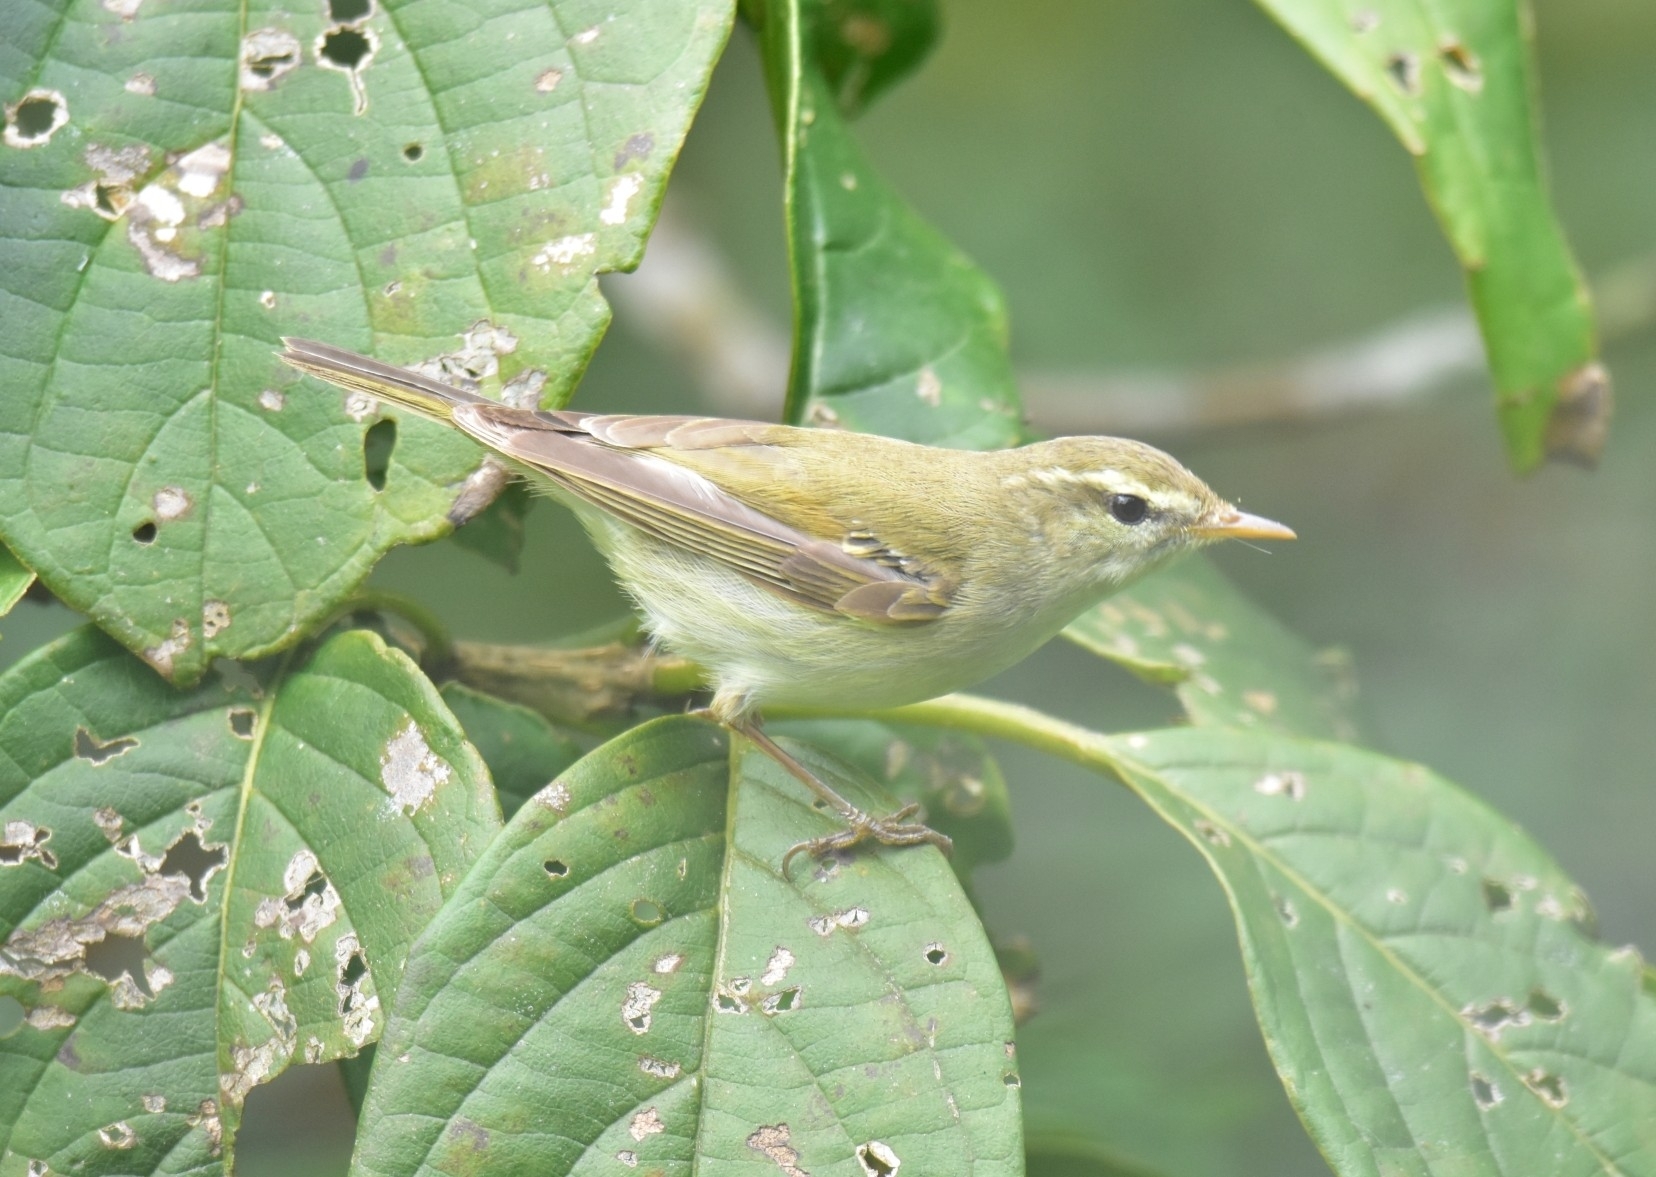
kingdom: Animalia
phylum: Chordata
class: Aves
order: Passeriformes
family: Phylloscopidae
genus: Phylloscopus
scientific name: Phylloscopus trochiloides
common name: Greenish warbler
